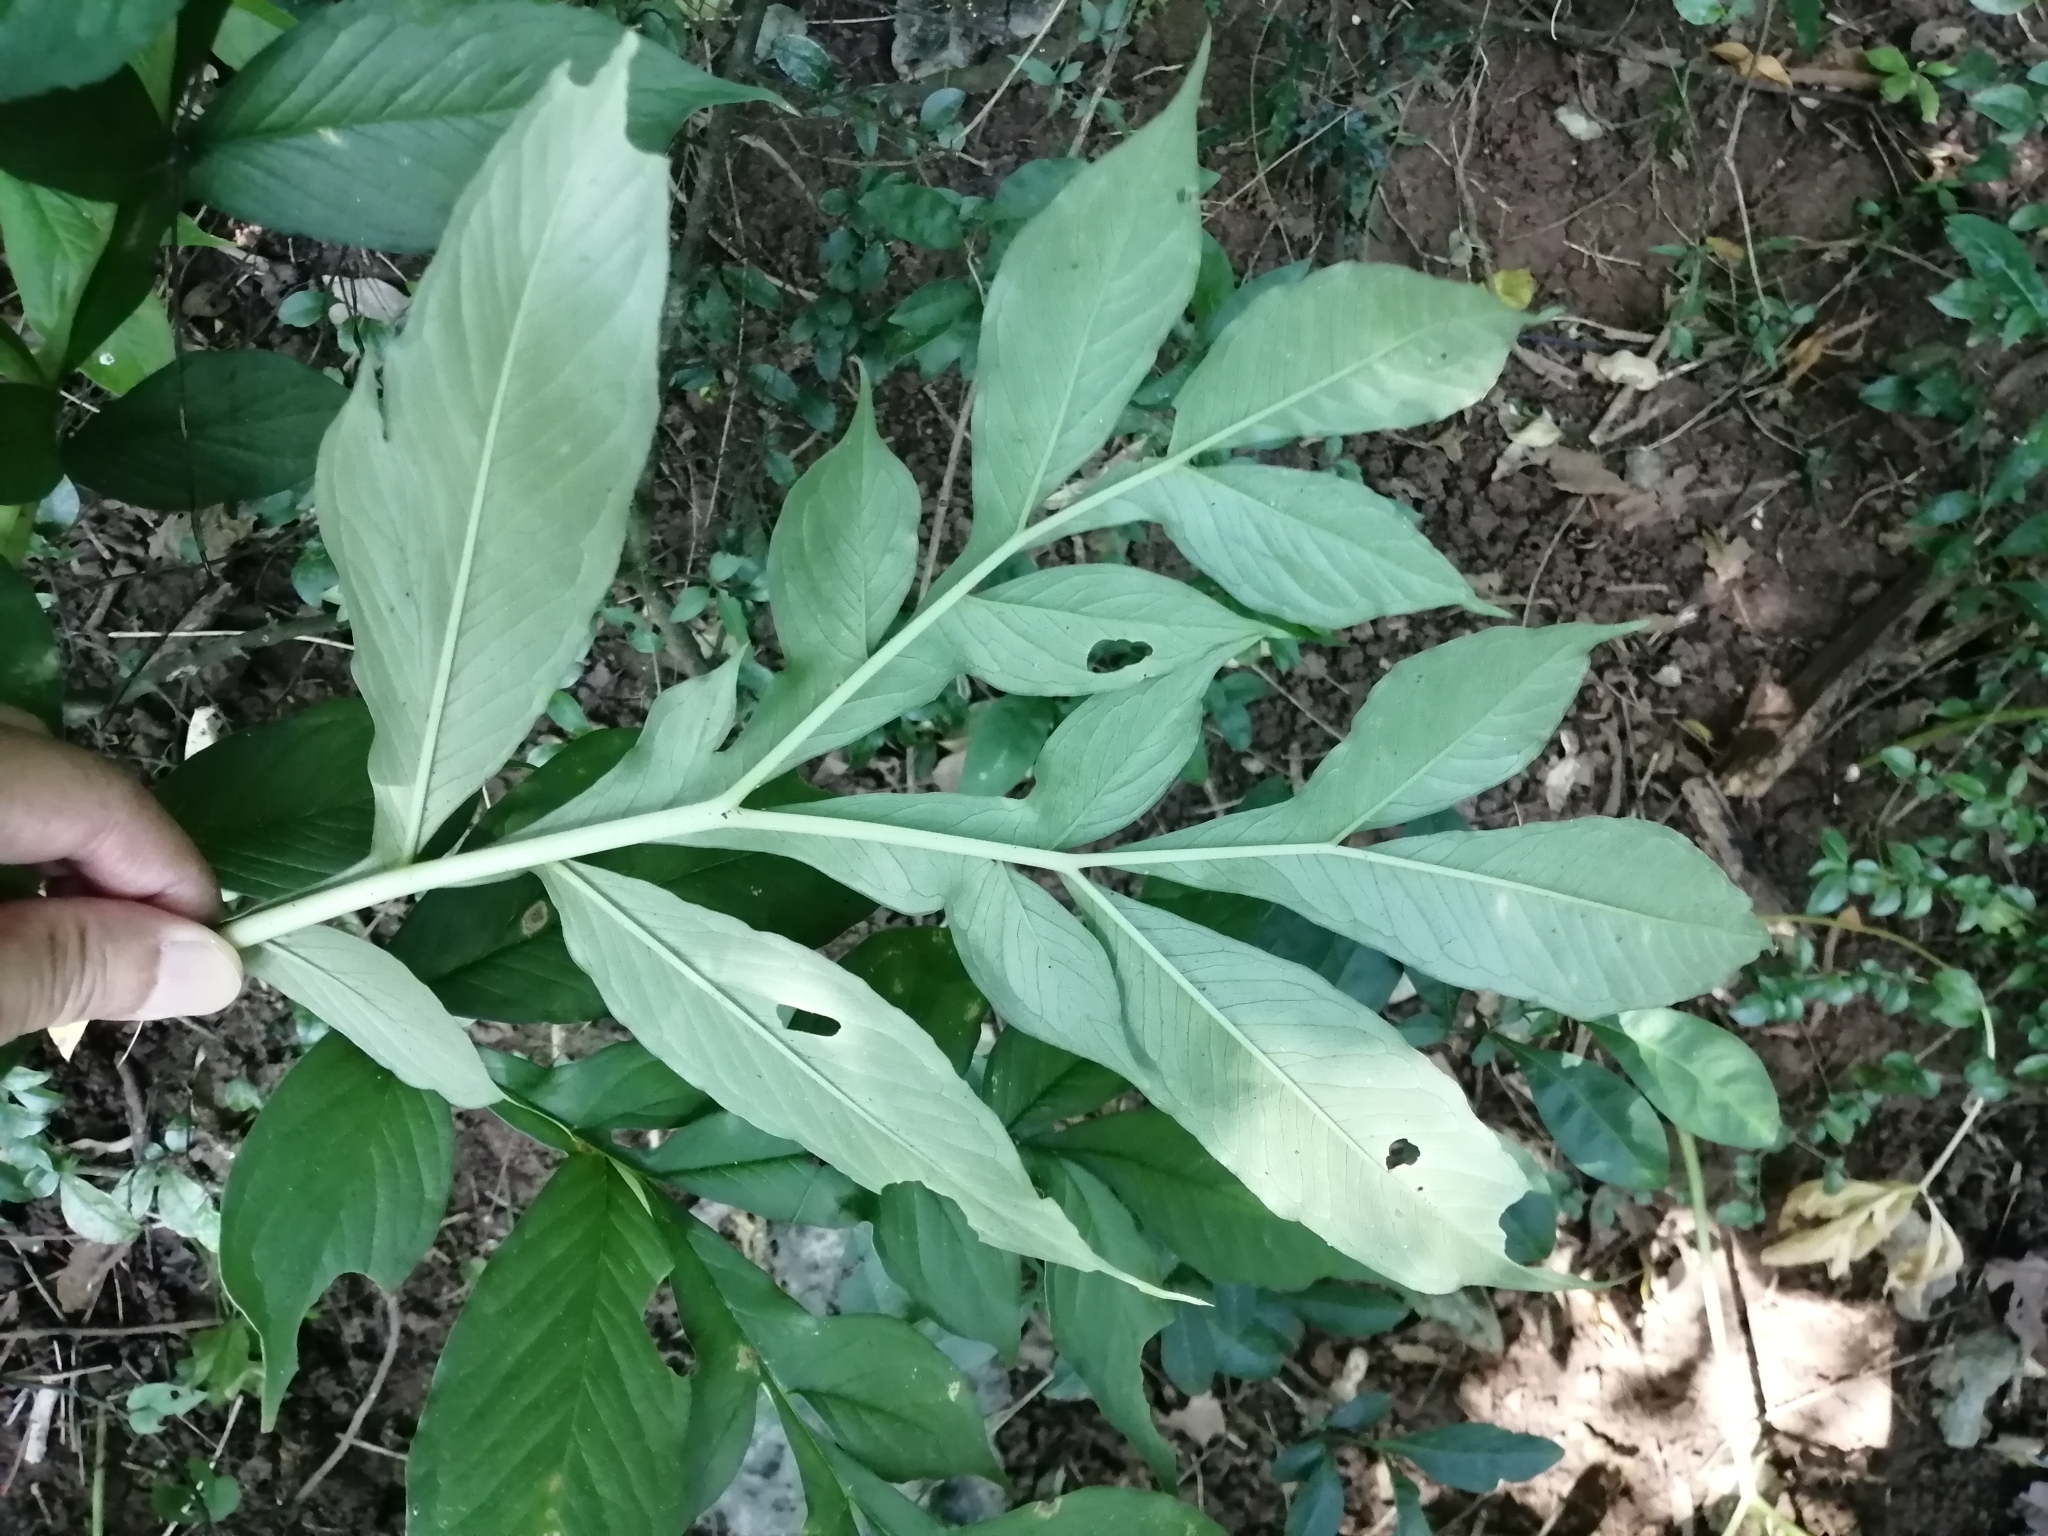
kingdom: Plantae
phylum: Tracheophyta
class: Liliopsida
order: Alismatales
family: Araceae
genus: Amorphophallus
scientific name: Amorphophallus henryi
